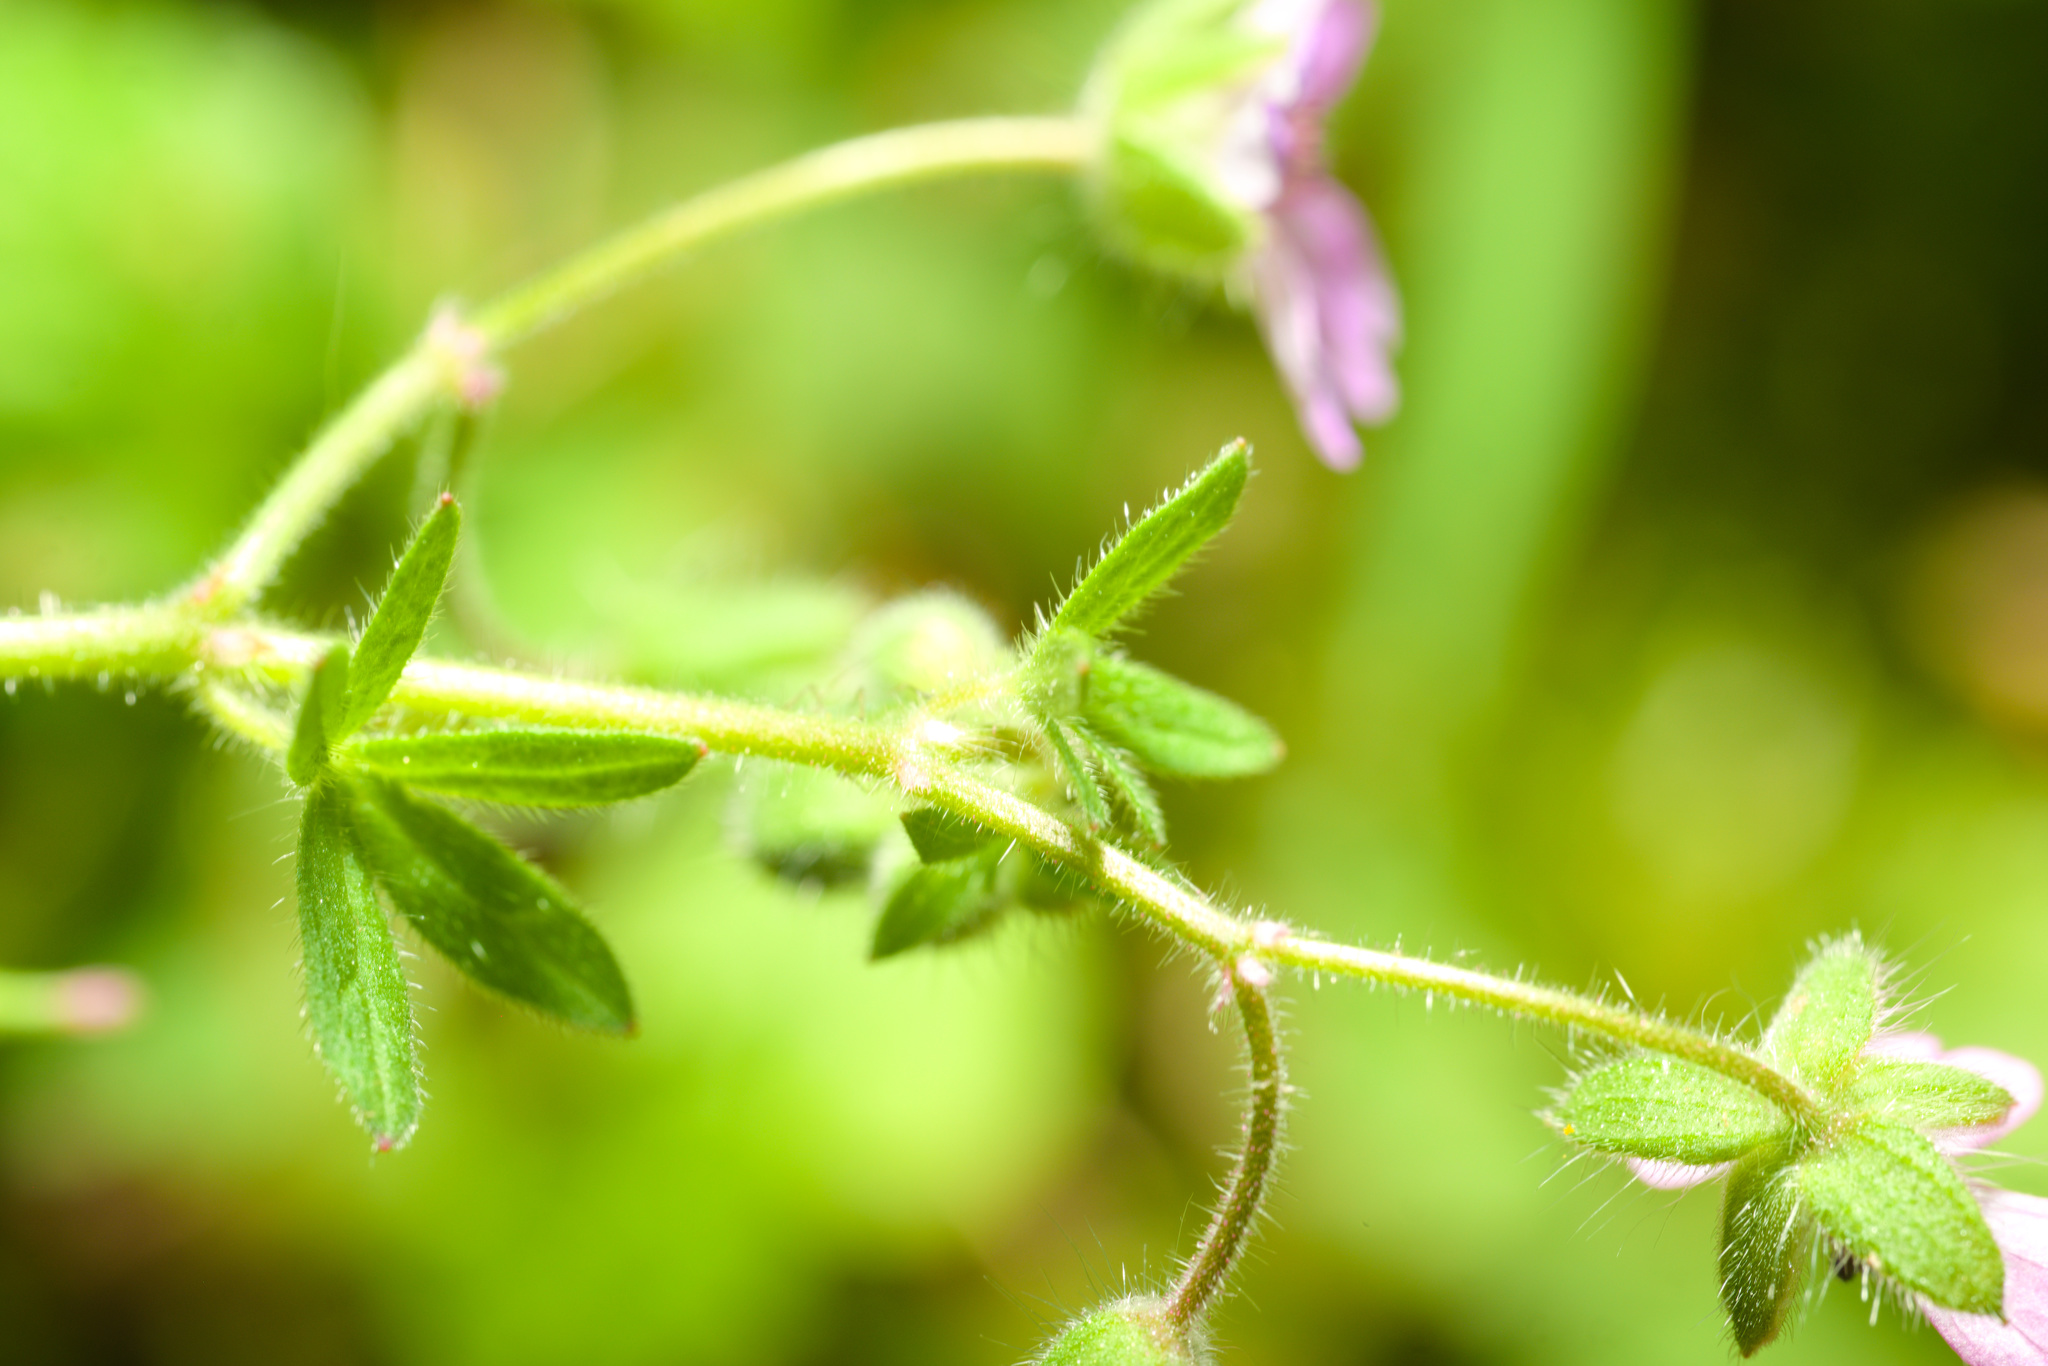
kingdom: Plantae
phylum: Tracheophyta
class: Magnoliopsida
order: Geraniales
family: Geraniaceae
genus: Geranium
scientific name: Geranium molle
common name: Dove's-foot crane's-bill
